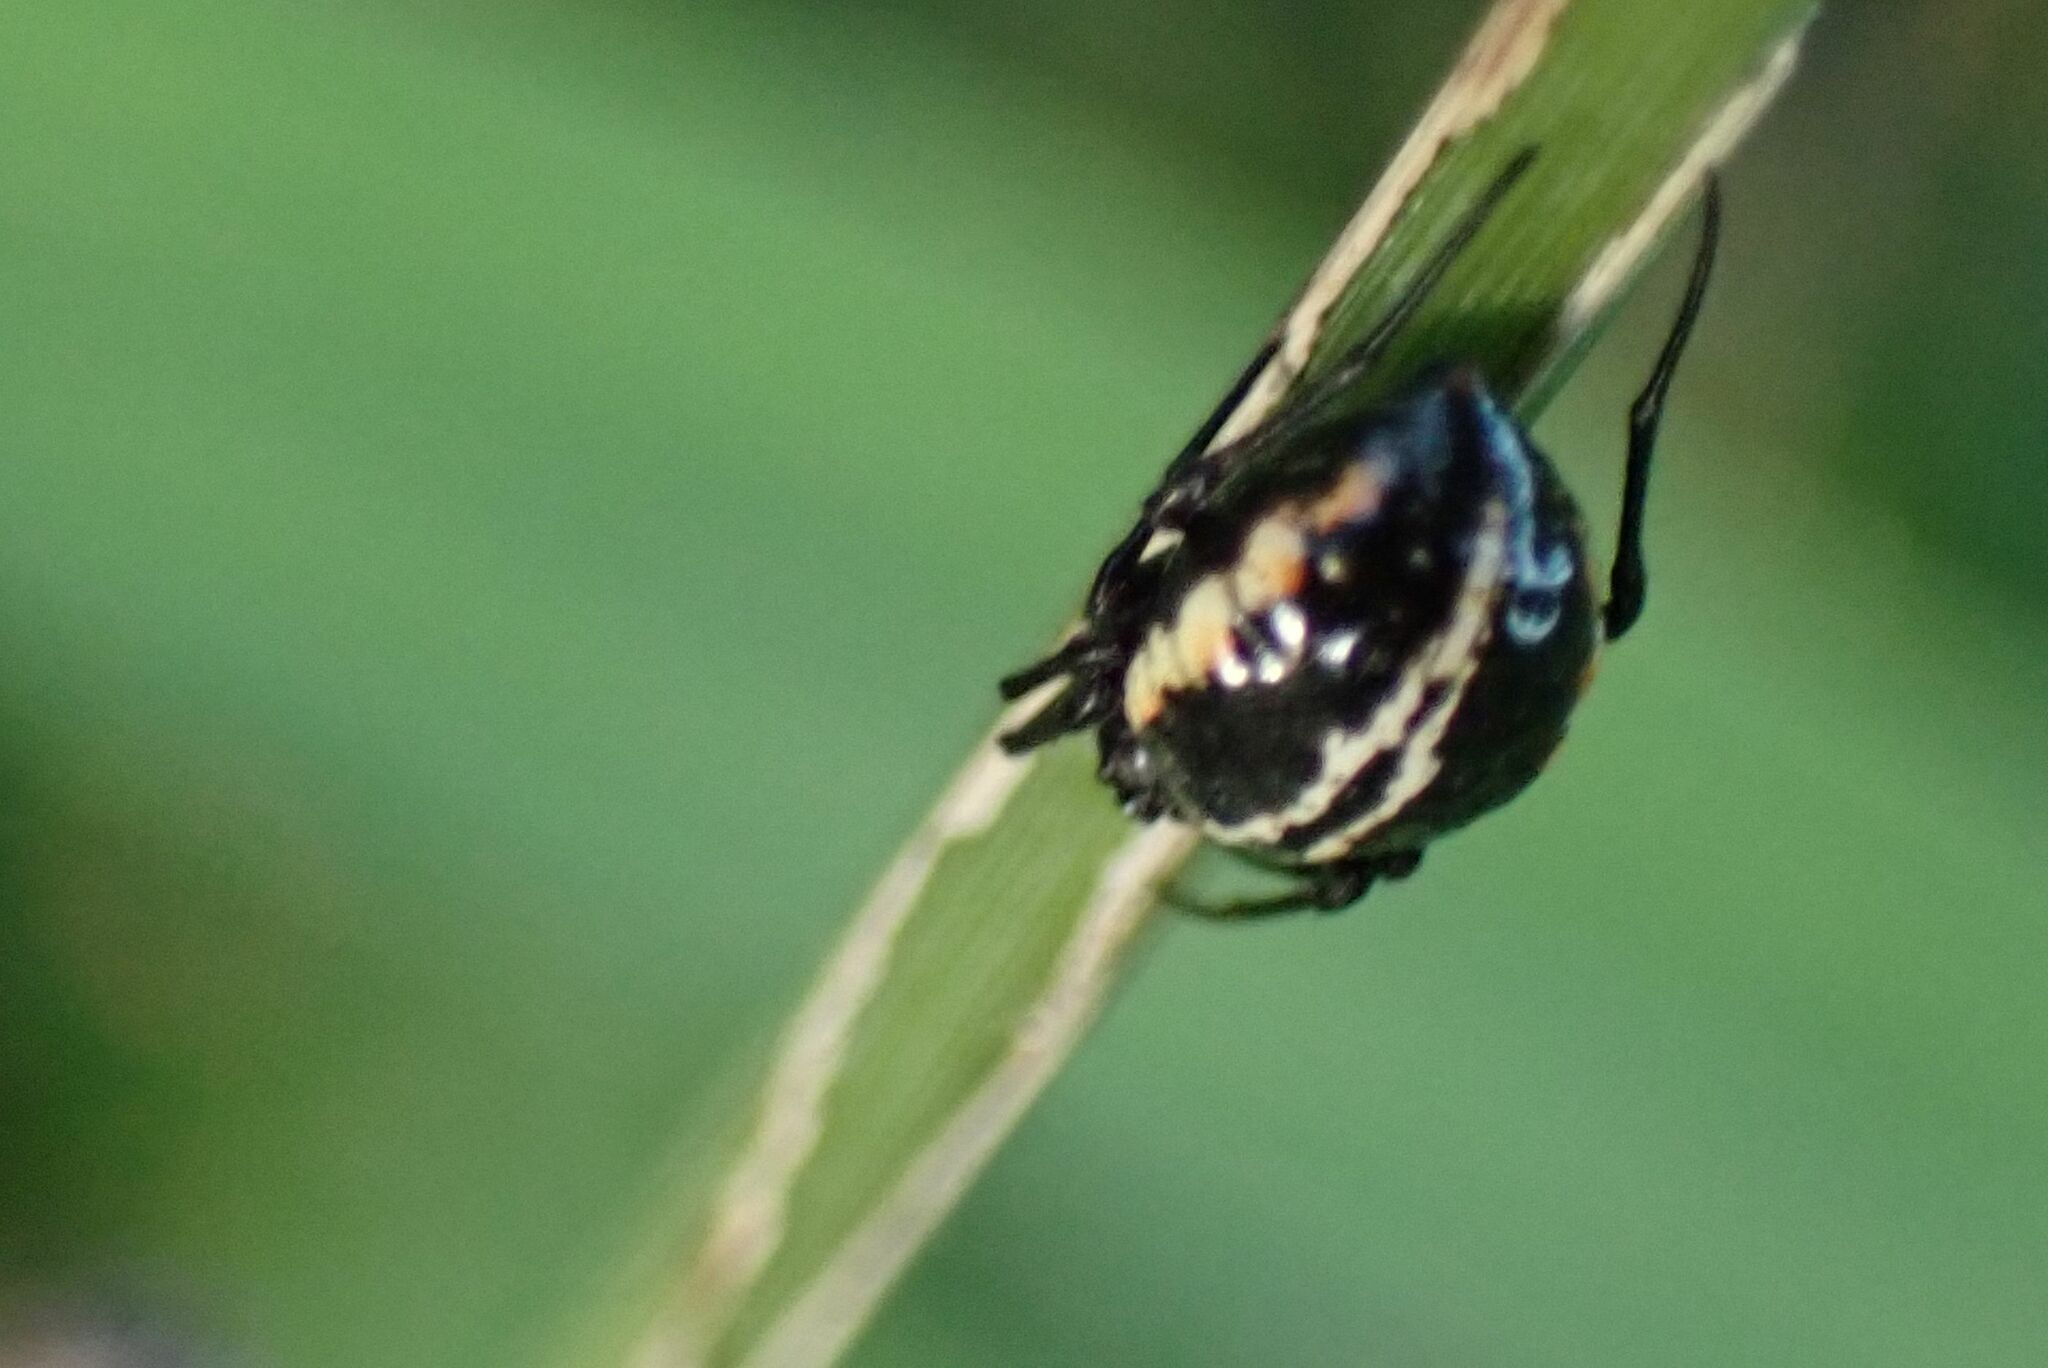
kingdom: Animalia
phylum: Arthropoda
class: Arachnida
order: Araneae
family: Araneidae
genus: Hypsosinga
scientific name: Hypsosinga lithyphantoides
